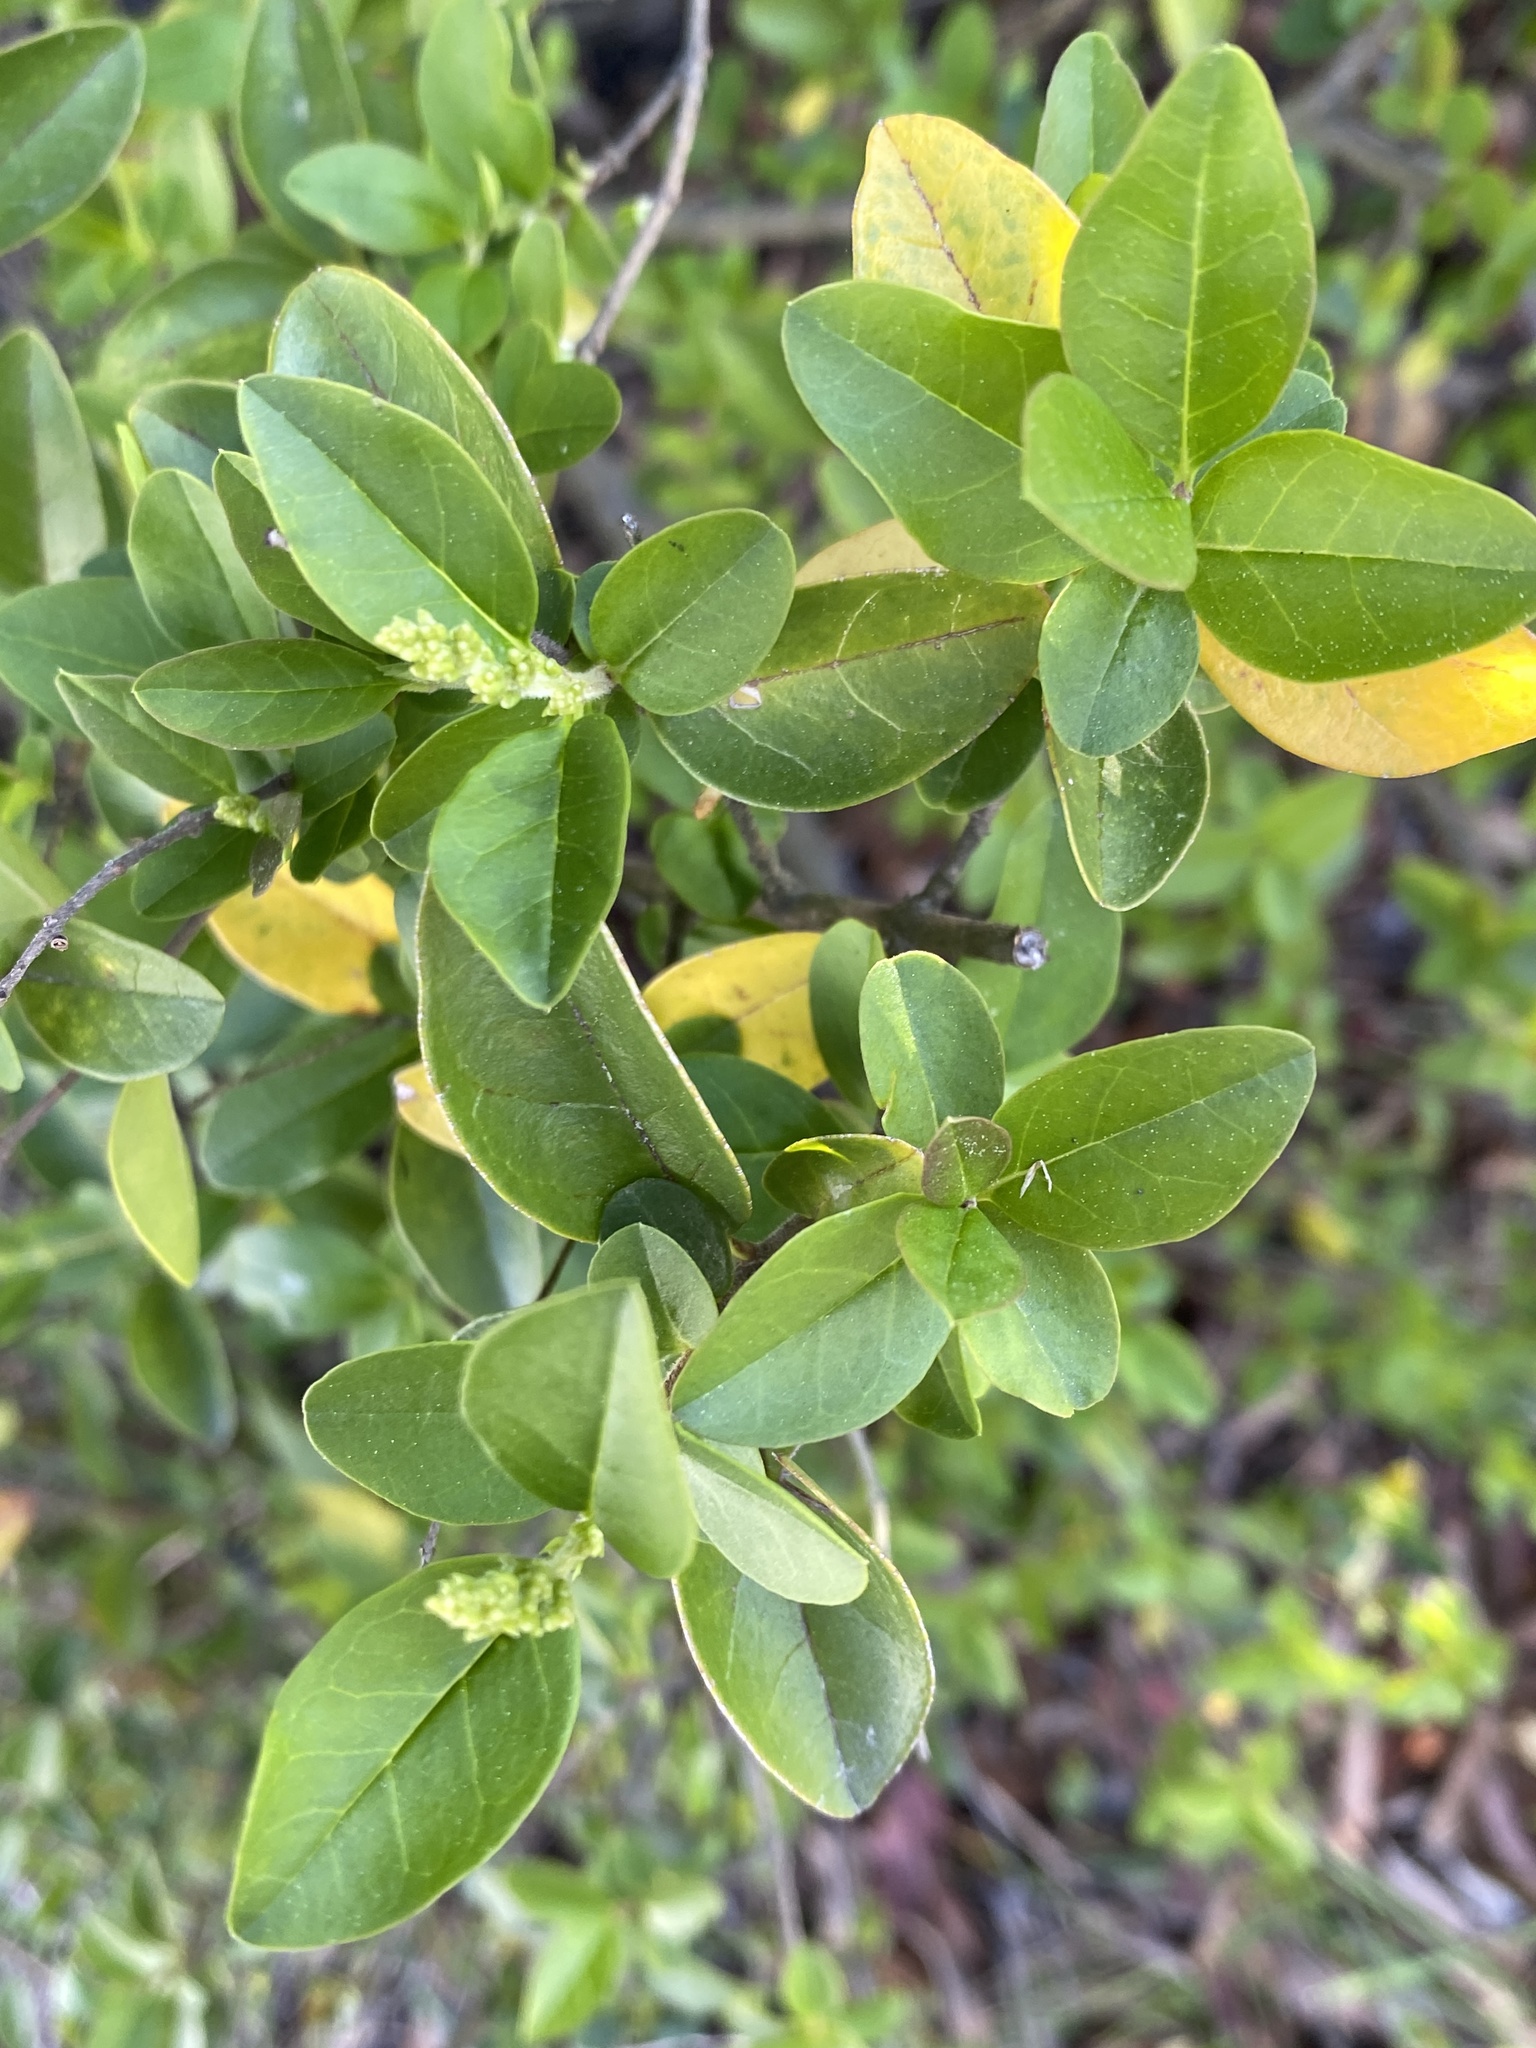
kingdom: Plantae
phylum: Tracheophyta
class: Magnoliopsida
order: Lamiales
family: Oleaceae
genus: Ligustrum
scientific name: Ligustrum sinense
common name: Chinese privet
